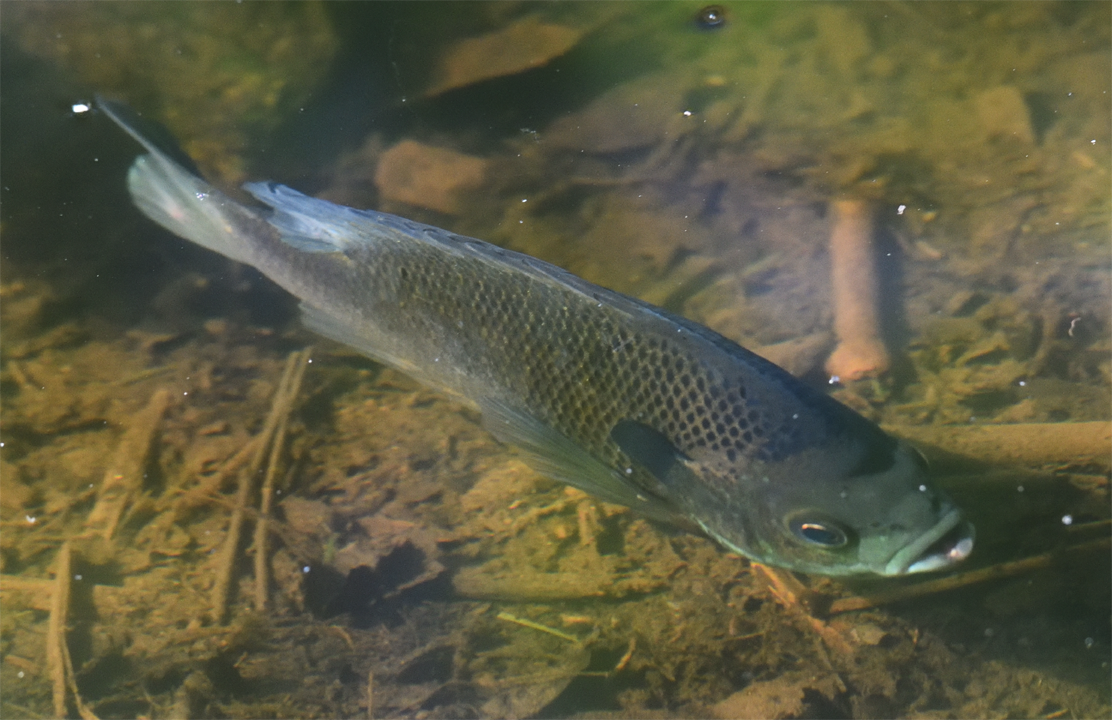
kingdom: Animalia
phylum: Chordata
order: Perciformes
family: Centrarchidae
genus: Lepomis
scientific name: Lepomis macrochirus
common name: Bluegill
